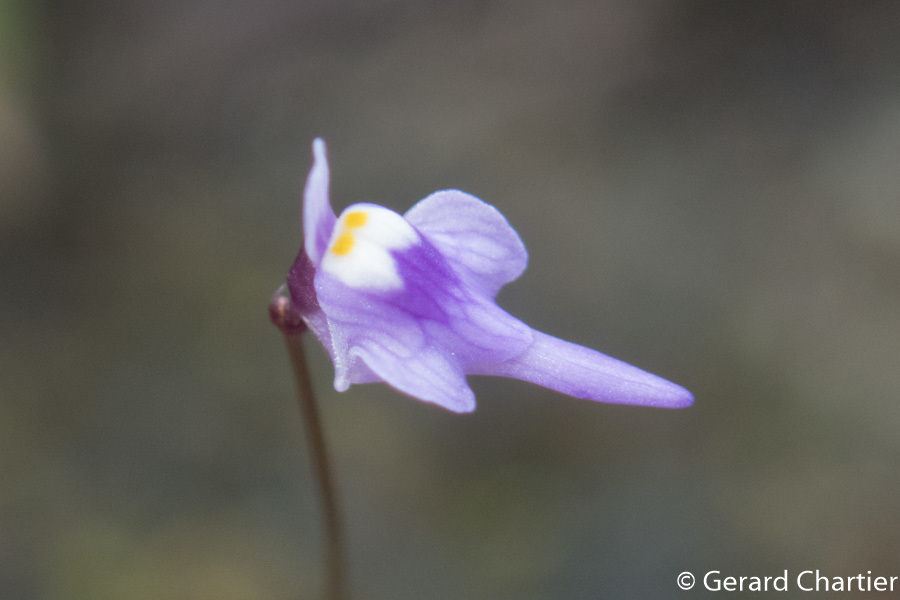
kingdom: Plantae
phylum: Tracheophyta
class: Magnoliopsida
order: Lamiales
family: Lentibulariaceae
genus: Utricularia
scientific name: Utricularia geoffrayi
